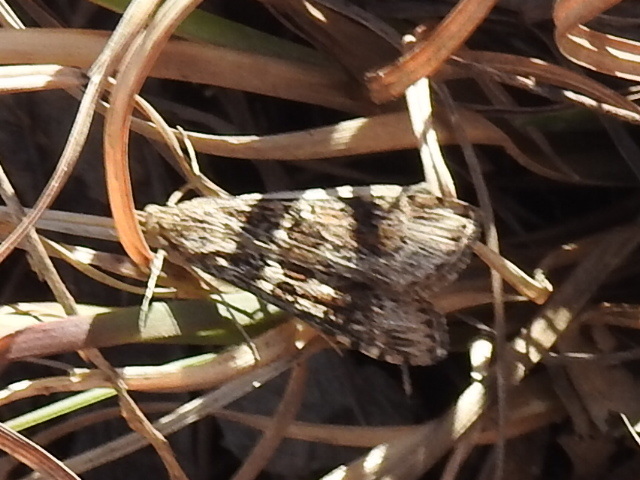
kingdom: Animalia
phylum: Arthropoda
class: Insecta
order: Lepidoptera
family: Crambidae
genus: Nomophila
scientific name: Nomophila nearctica
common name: American rush veneer
